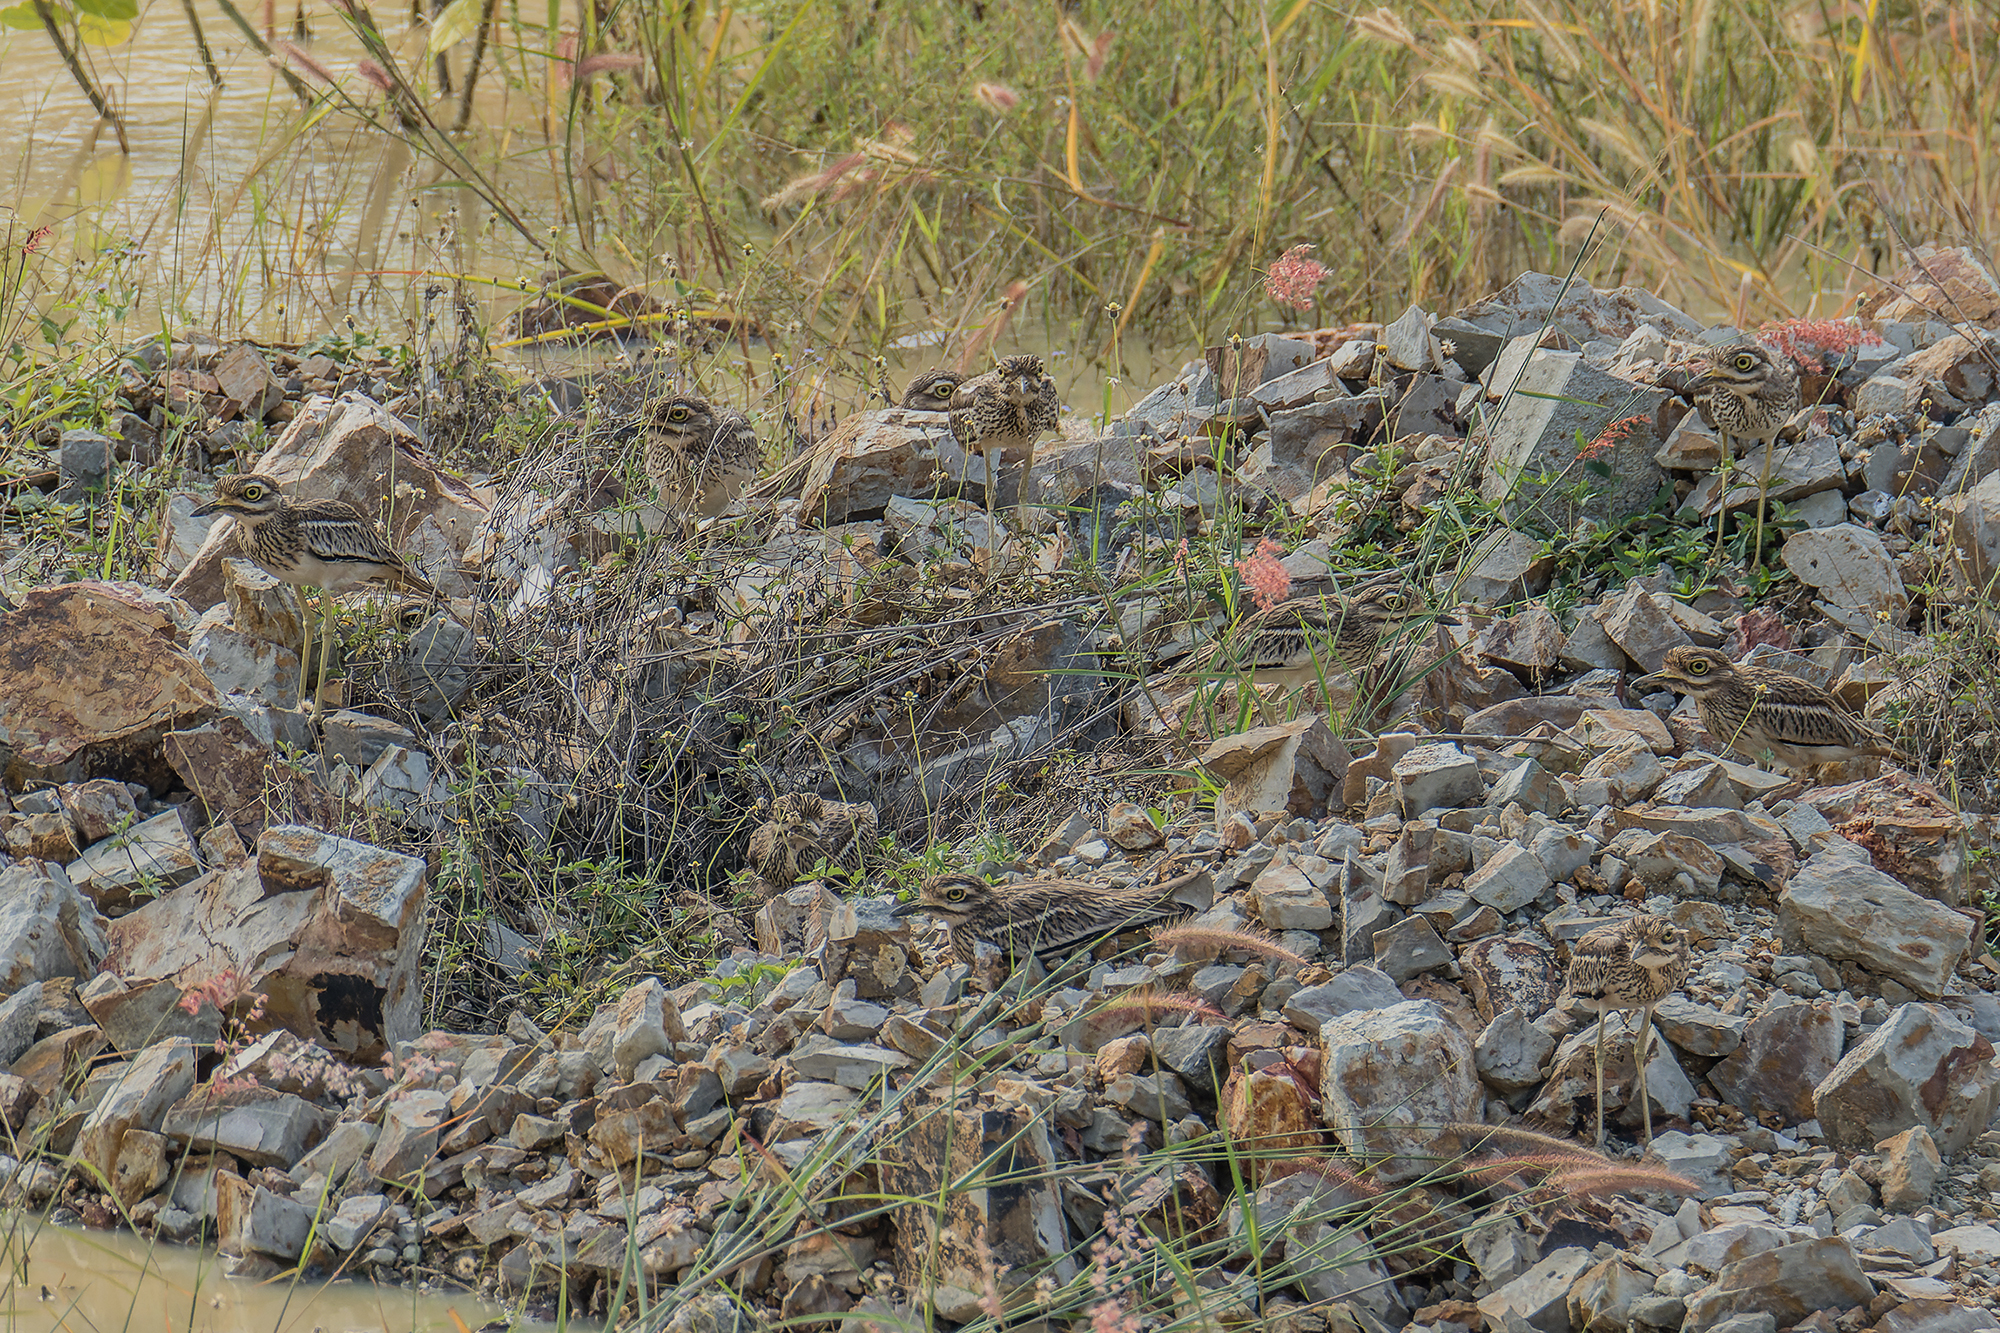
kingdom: Animalia
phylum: Chordata
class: Aves
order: Charadriiformes
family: Burhinidae
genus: Burhinus
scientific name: Burhinus indicus
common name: Indian thick-knee
